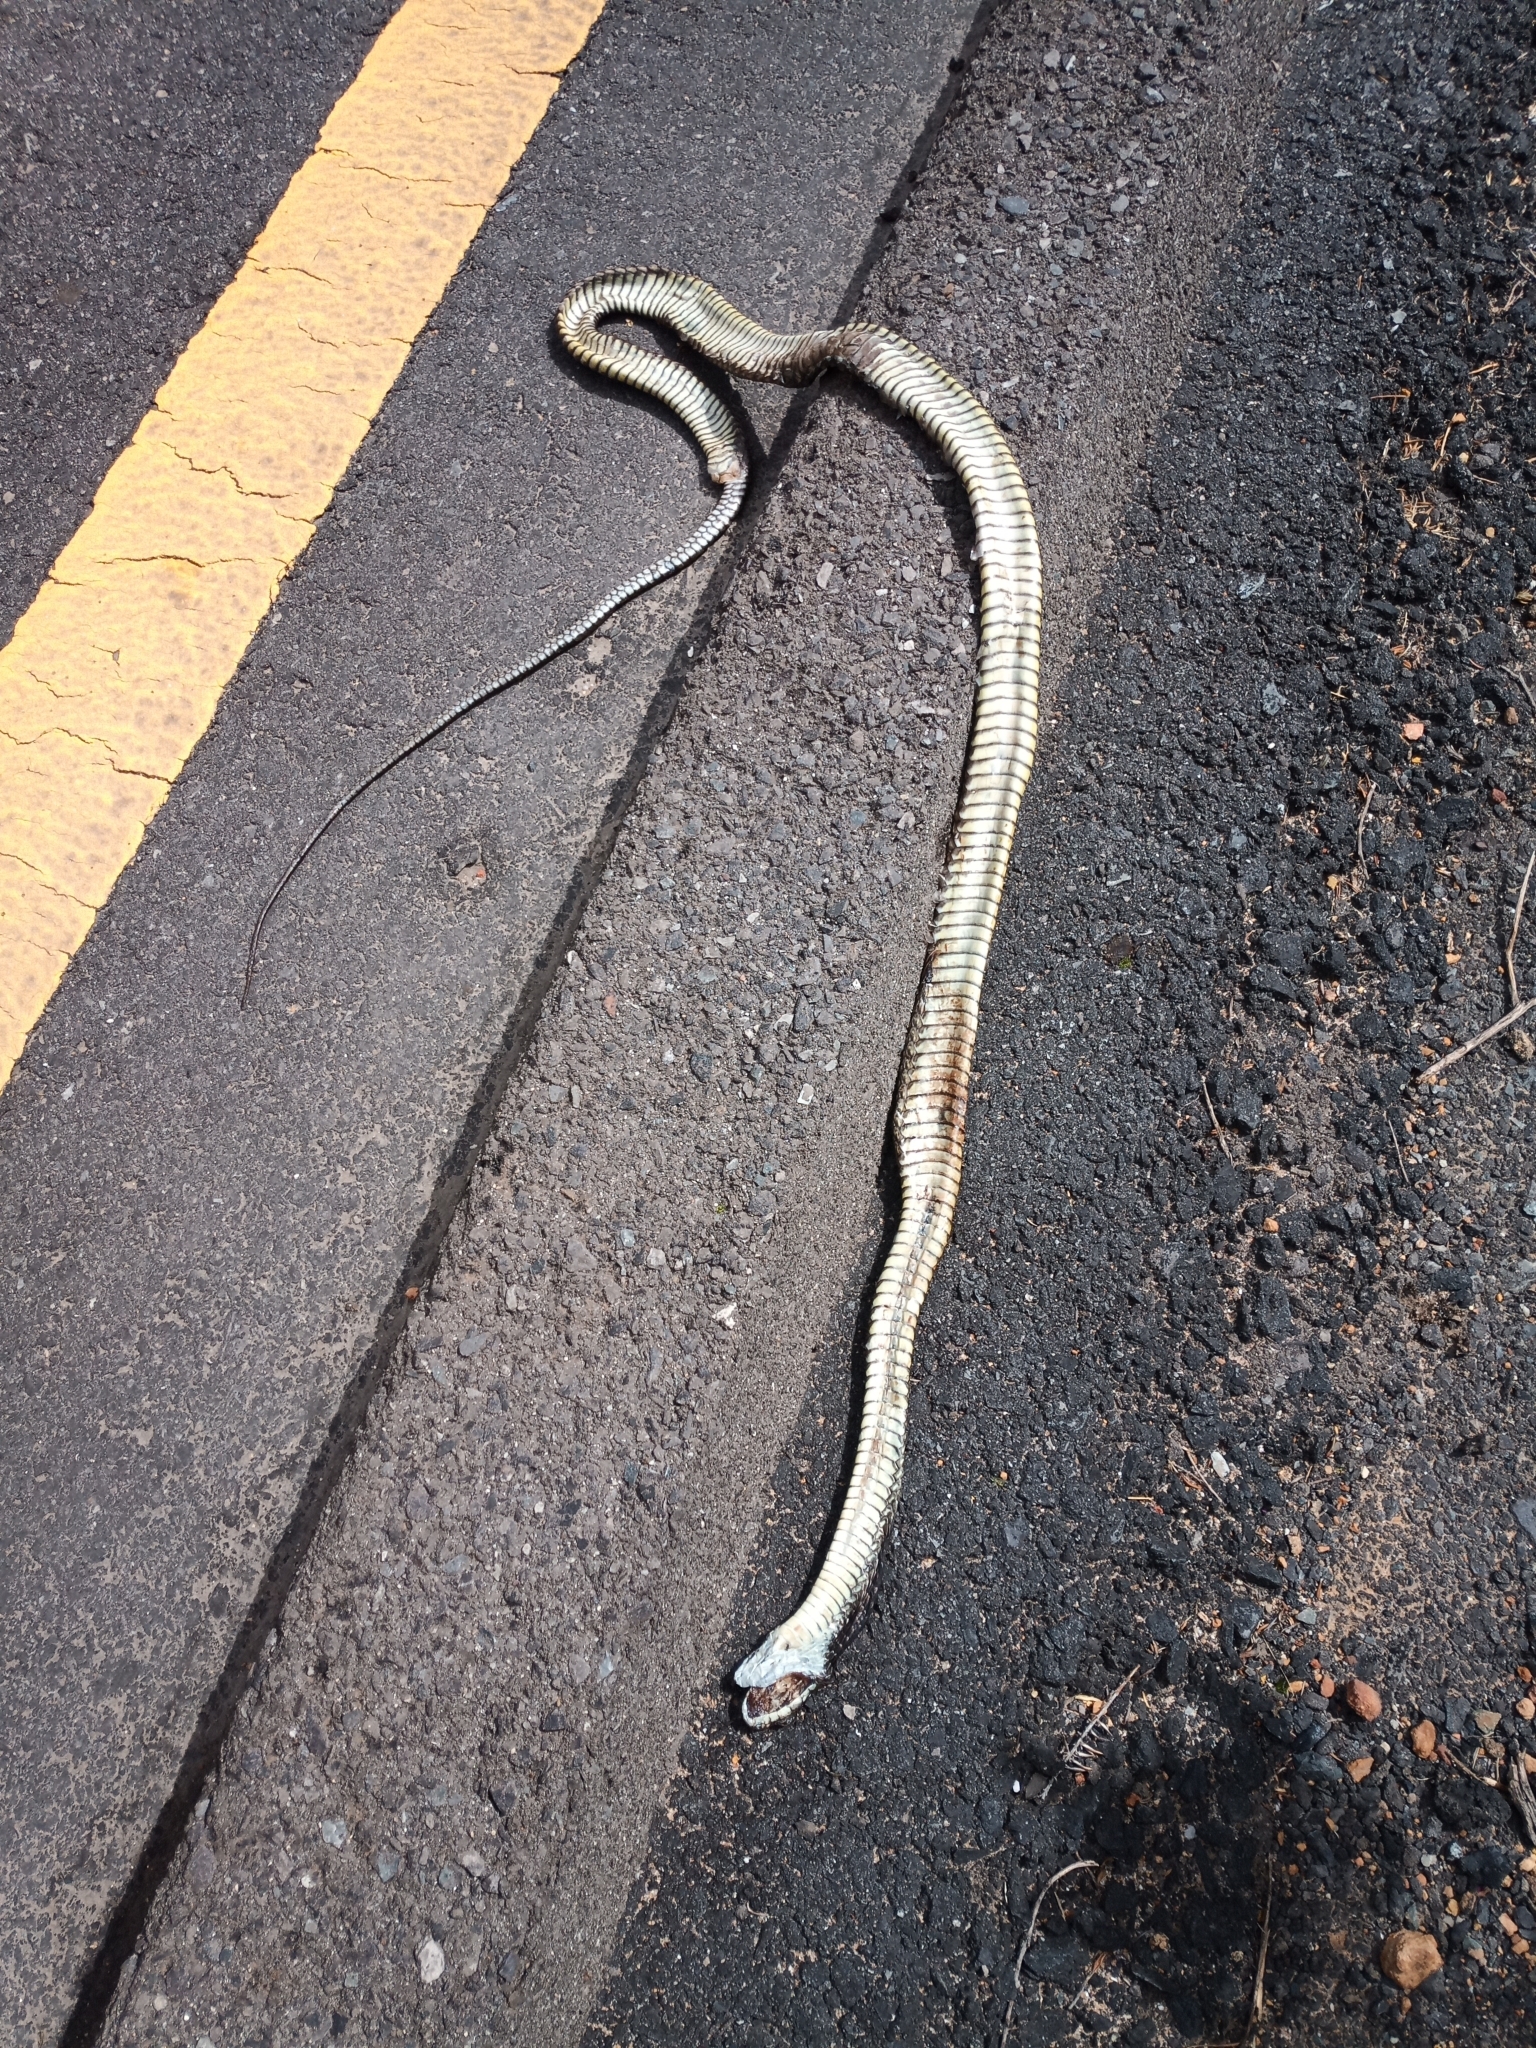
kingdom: Animalia
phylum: Chordata
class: Squamata
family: Colubridae
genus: Dispholidus
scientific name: Dispholidus typus
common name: Boomslang
